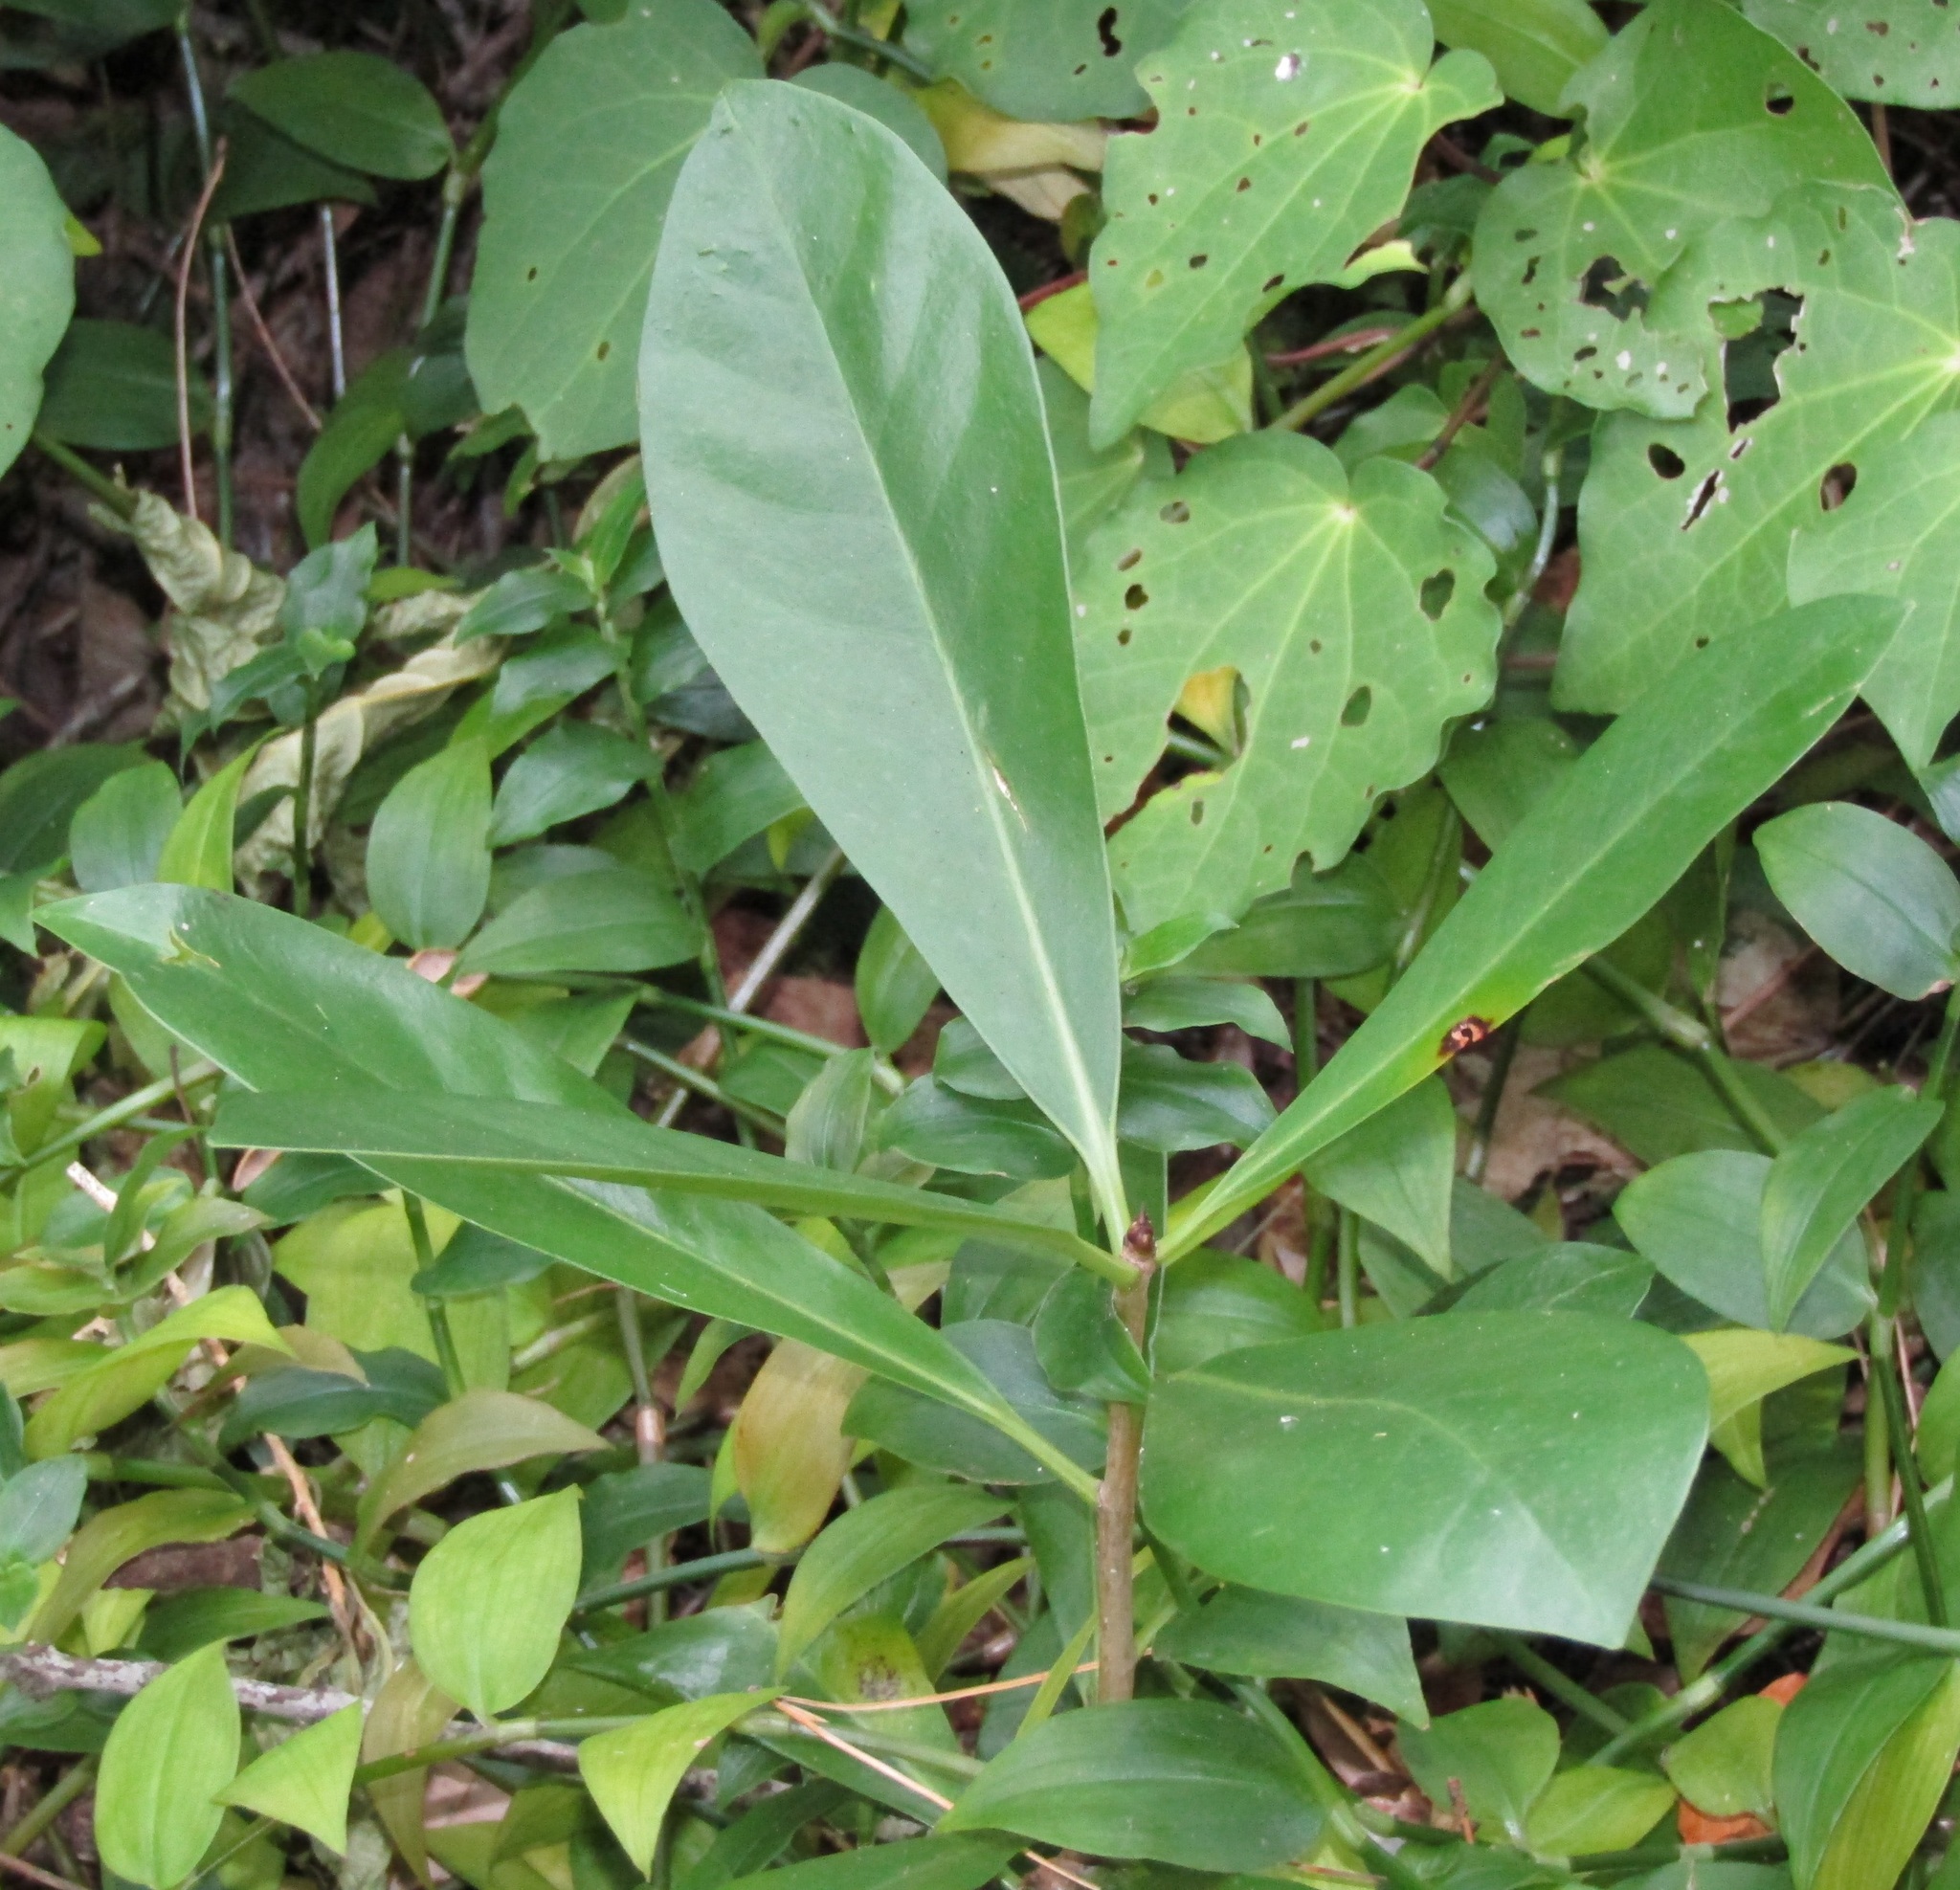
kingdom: Plantae
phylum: Tracheophyta
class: Magnoliopsida
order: Cucurbitales
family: Corynocarpaceae
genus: Corynocarpus
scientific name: Corynocarpus laevigatus
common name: New zealand laurel
